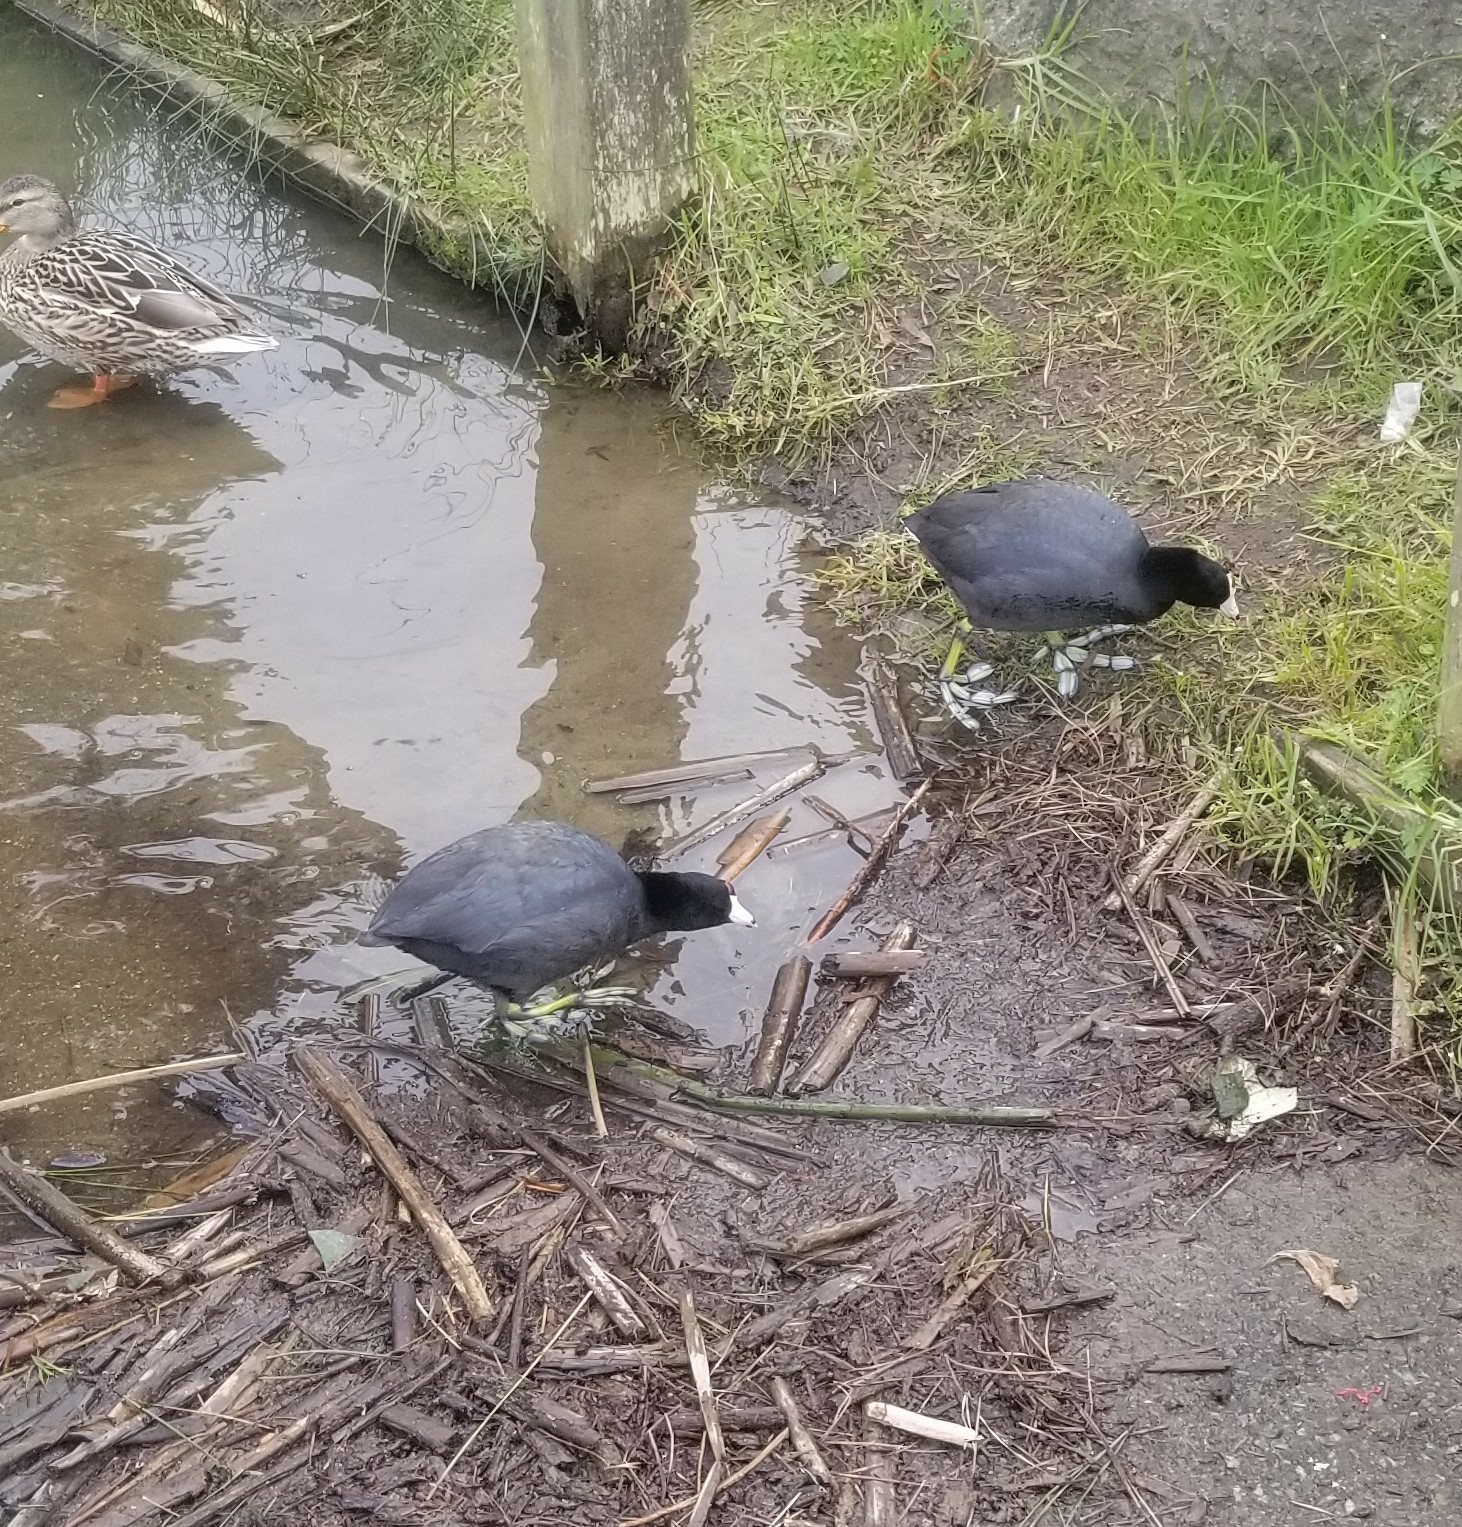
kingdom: Animalia
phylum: Chordata
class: Aves
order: Gruiformes
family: Rallidae
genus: Fulica
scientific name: Fulica americana
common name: American coot
